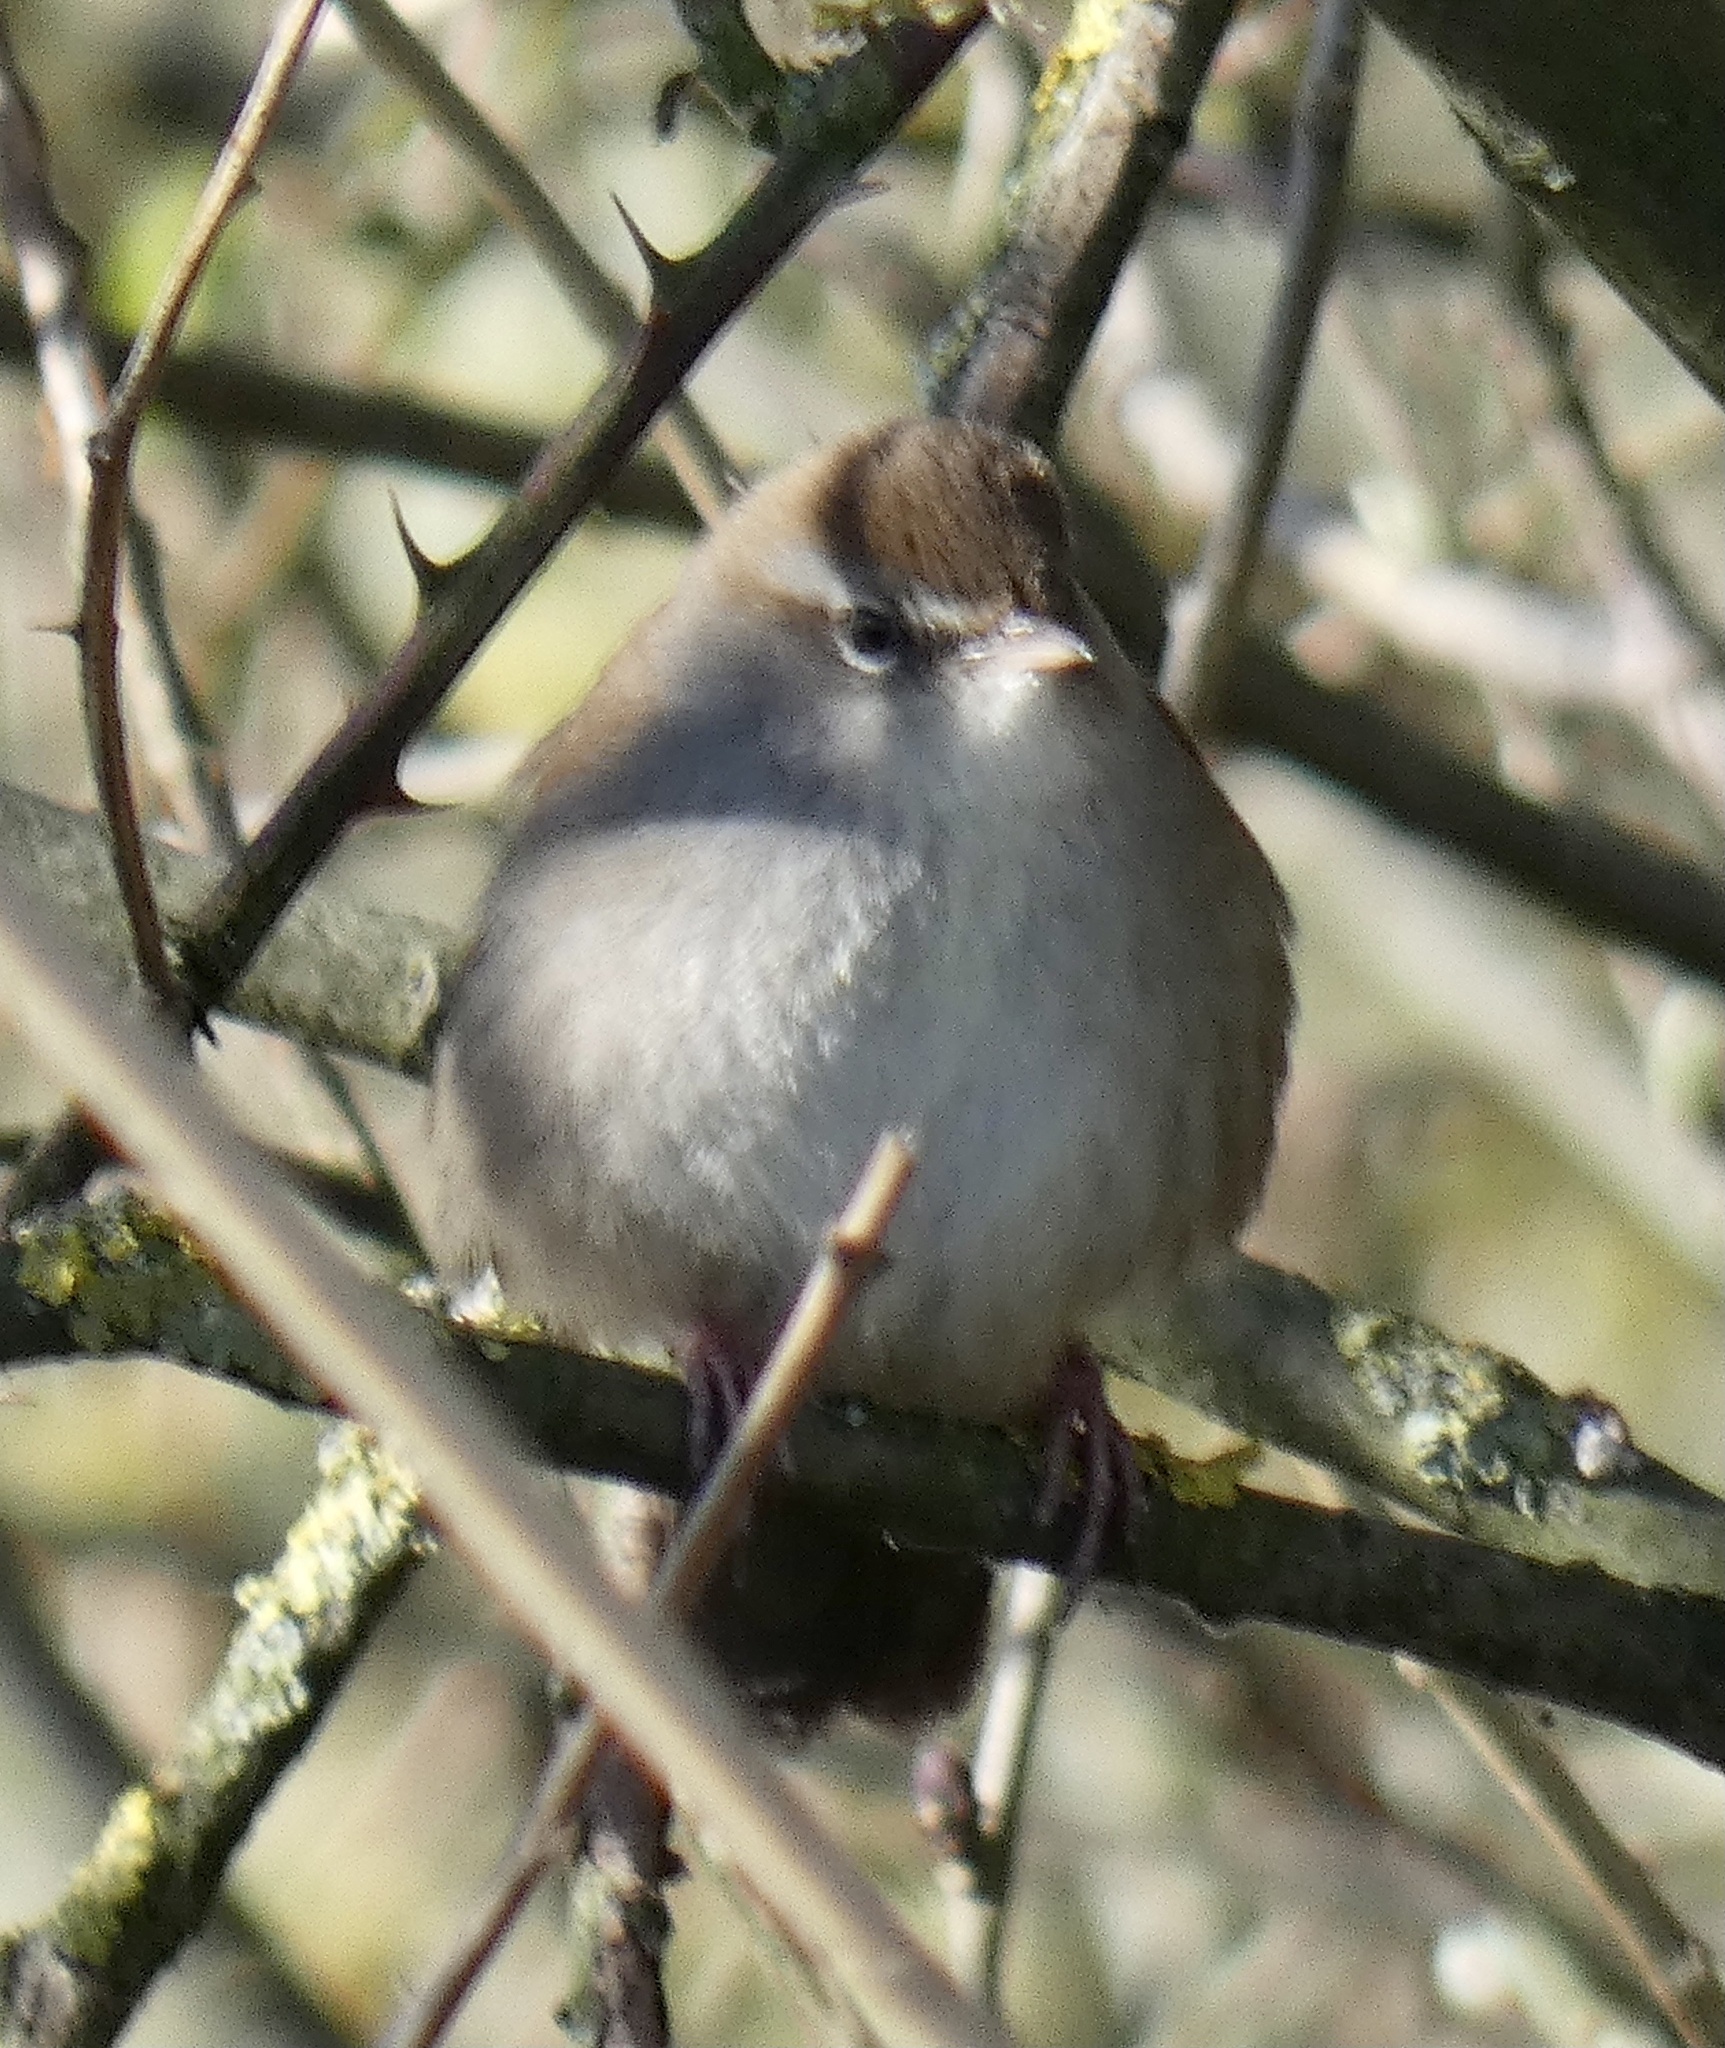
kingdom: Animalia
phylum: Chordata
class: Aves
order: Passeriformes
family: Cettiidae
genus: Cettia
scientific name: Cettia cetti
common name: Cetti's warbler
